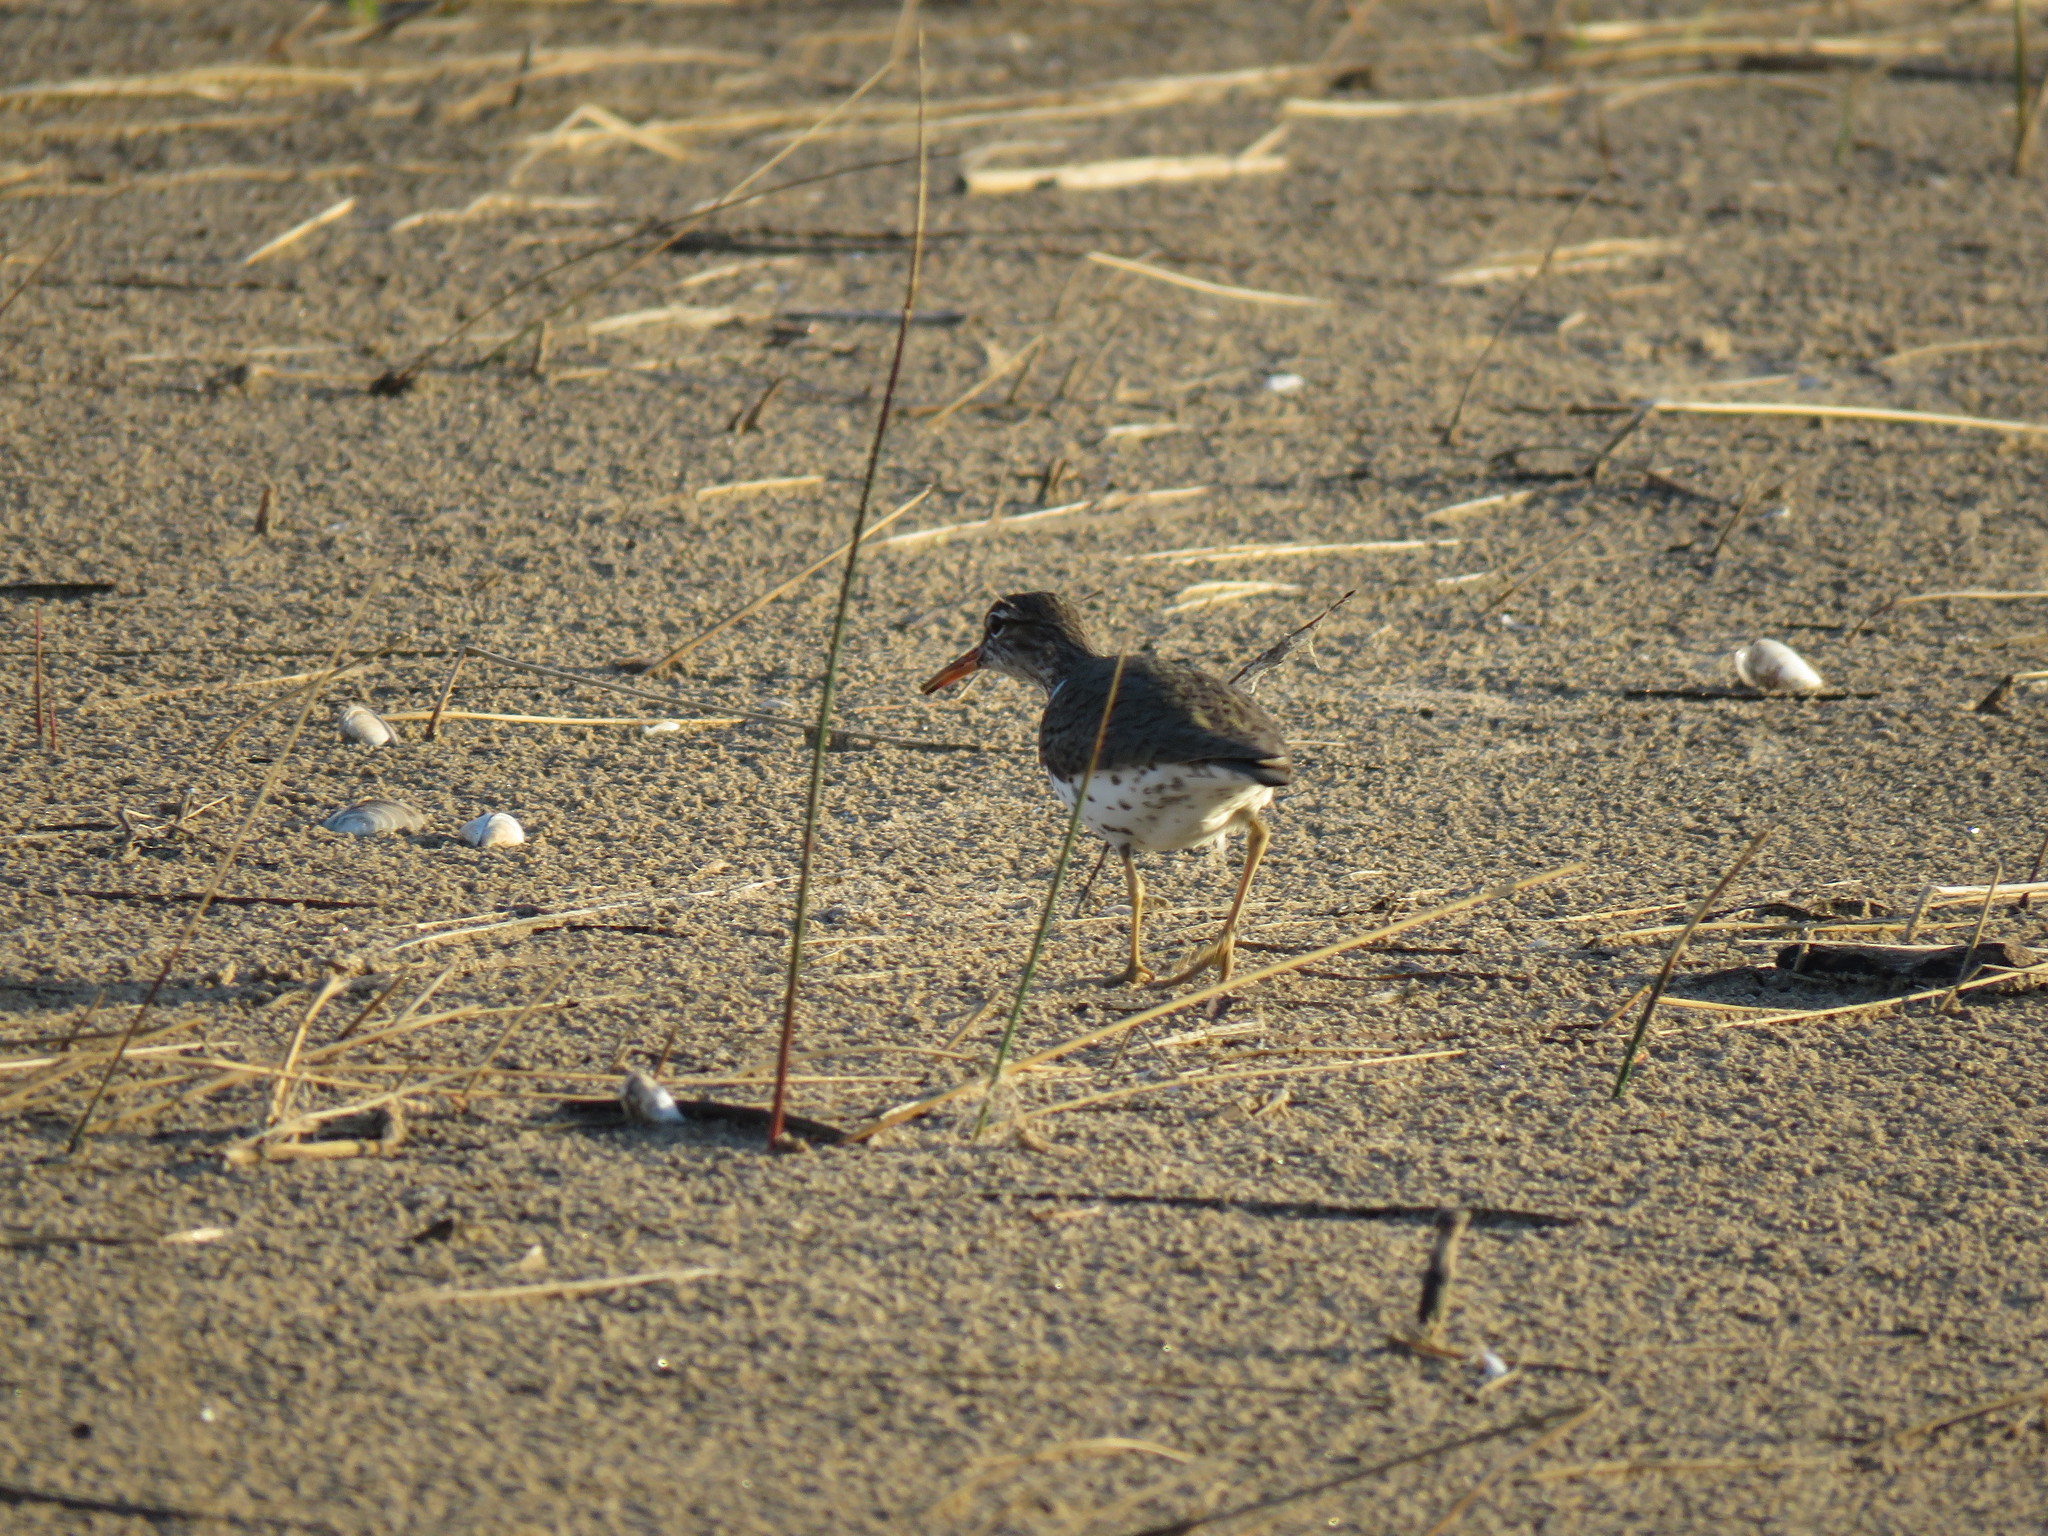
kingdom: Animalia
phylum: Chordata
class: Aves
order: Charadriiformes
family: Scolopacidae
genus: Actitis
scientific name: Actitis macularius
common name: Spotted sandpiper
